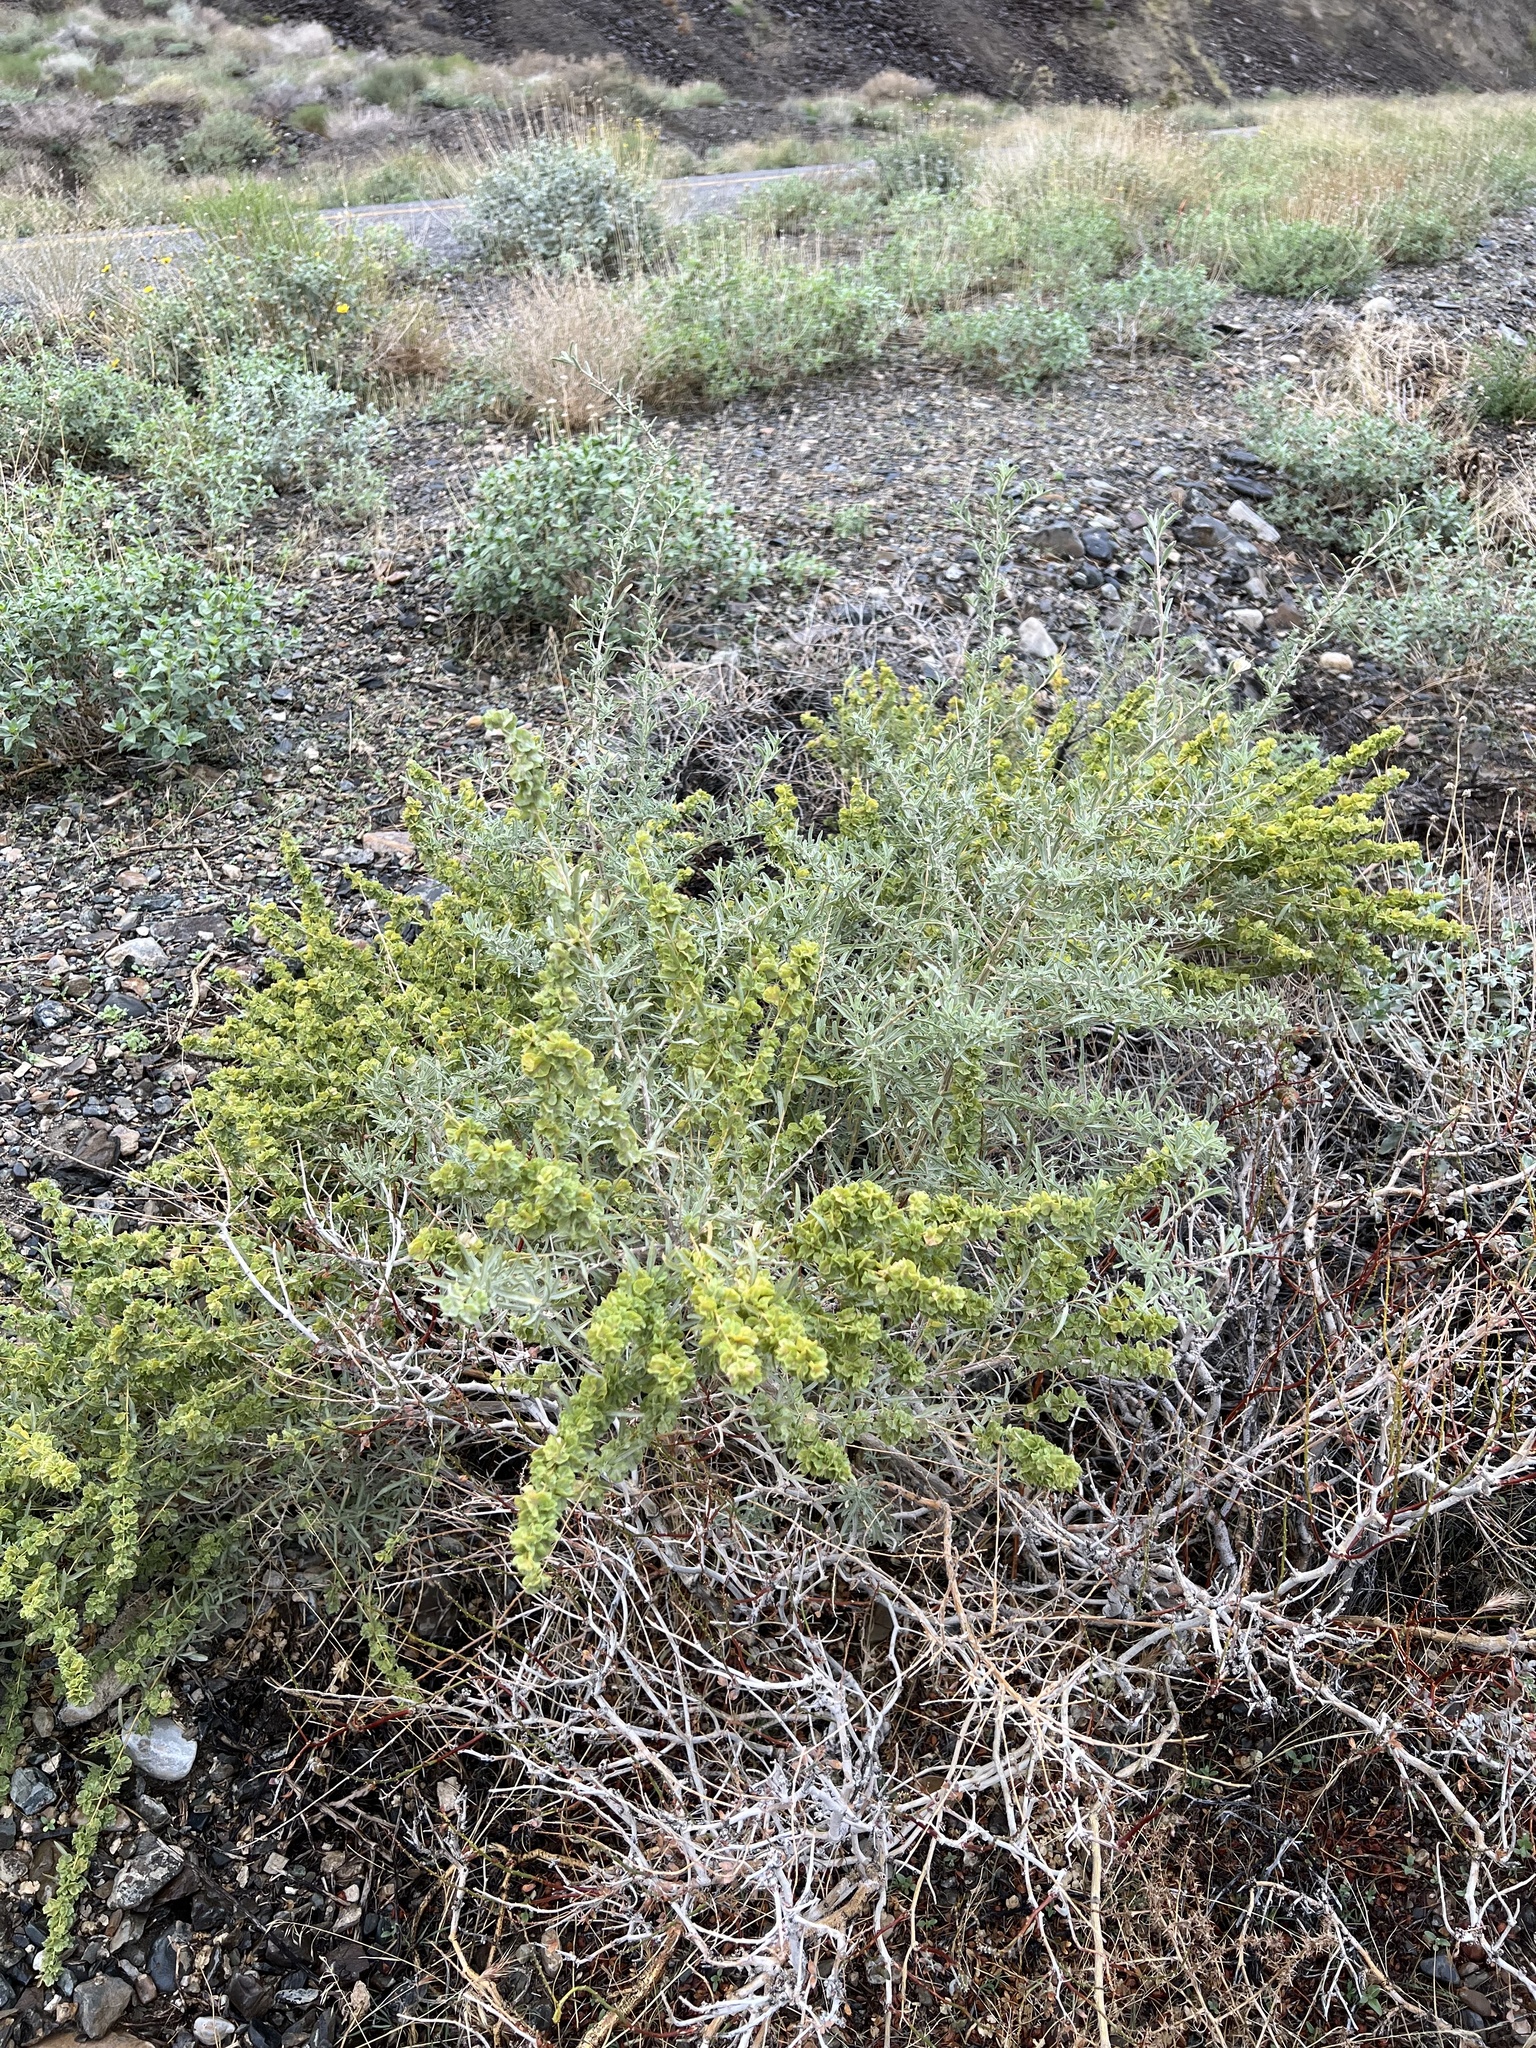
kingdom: Plantae
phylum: Tracheophyta
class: Magnoliopsida
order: Caryophyllales
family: Amaranthaceae
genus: Atriplex
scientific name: Atriplex canescens
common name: Four-wing saltbush
